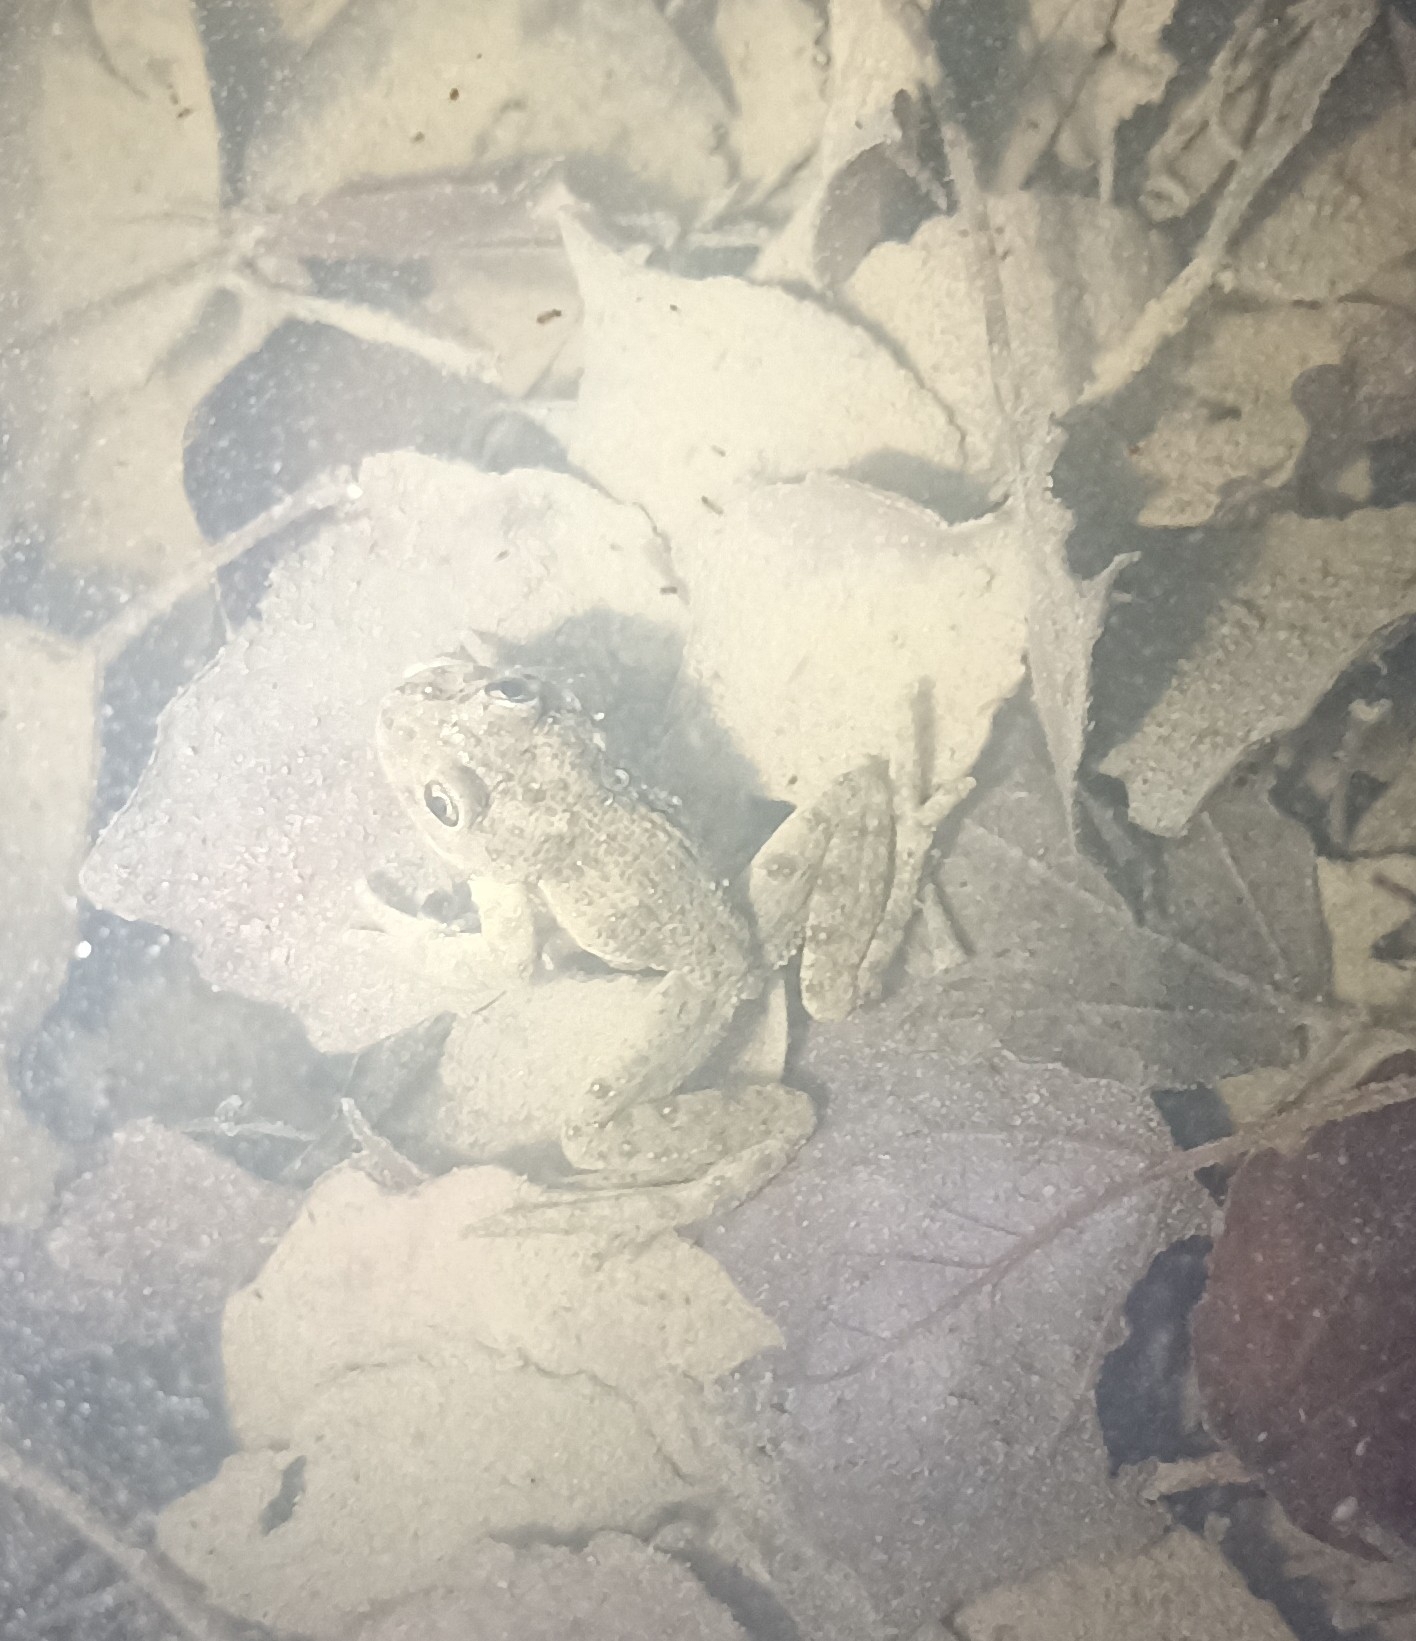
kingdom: Animalia
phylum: Chordata
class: Amphibia
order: Anura
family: Pelodytidae
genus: Pelodytes
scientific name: Pelodytes punctatus
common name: Parsley frog
